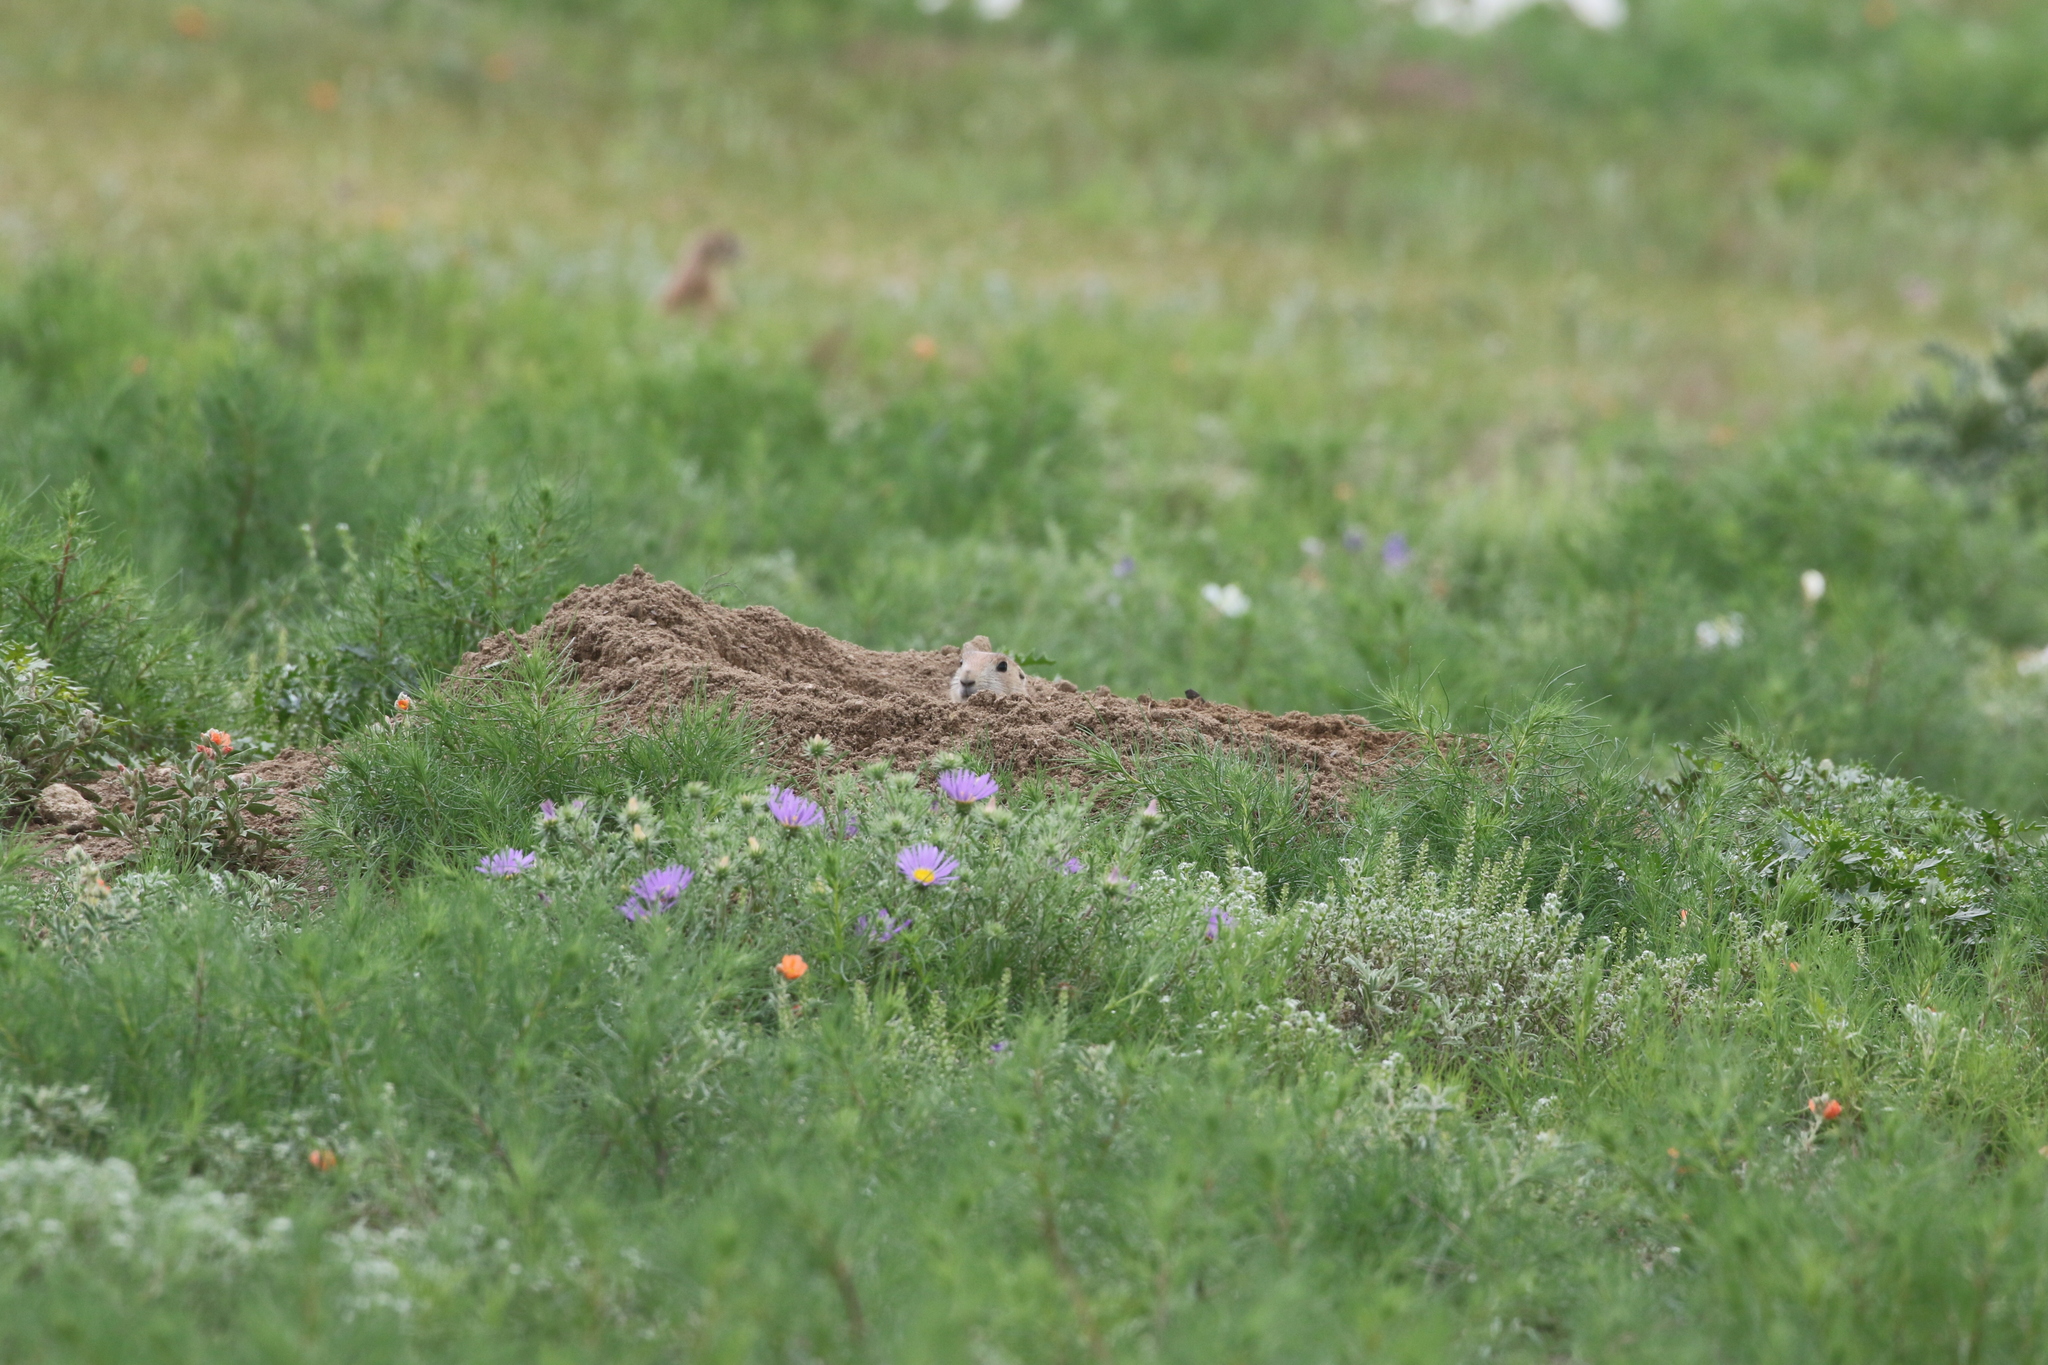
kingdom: Animalia
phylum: Chordata
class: Mammalia
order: Rodentia
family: Sciuridae
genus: Cynomys
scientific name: Cynomys ludovicianus
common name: Black-tailed prairie dog
